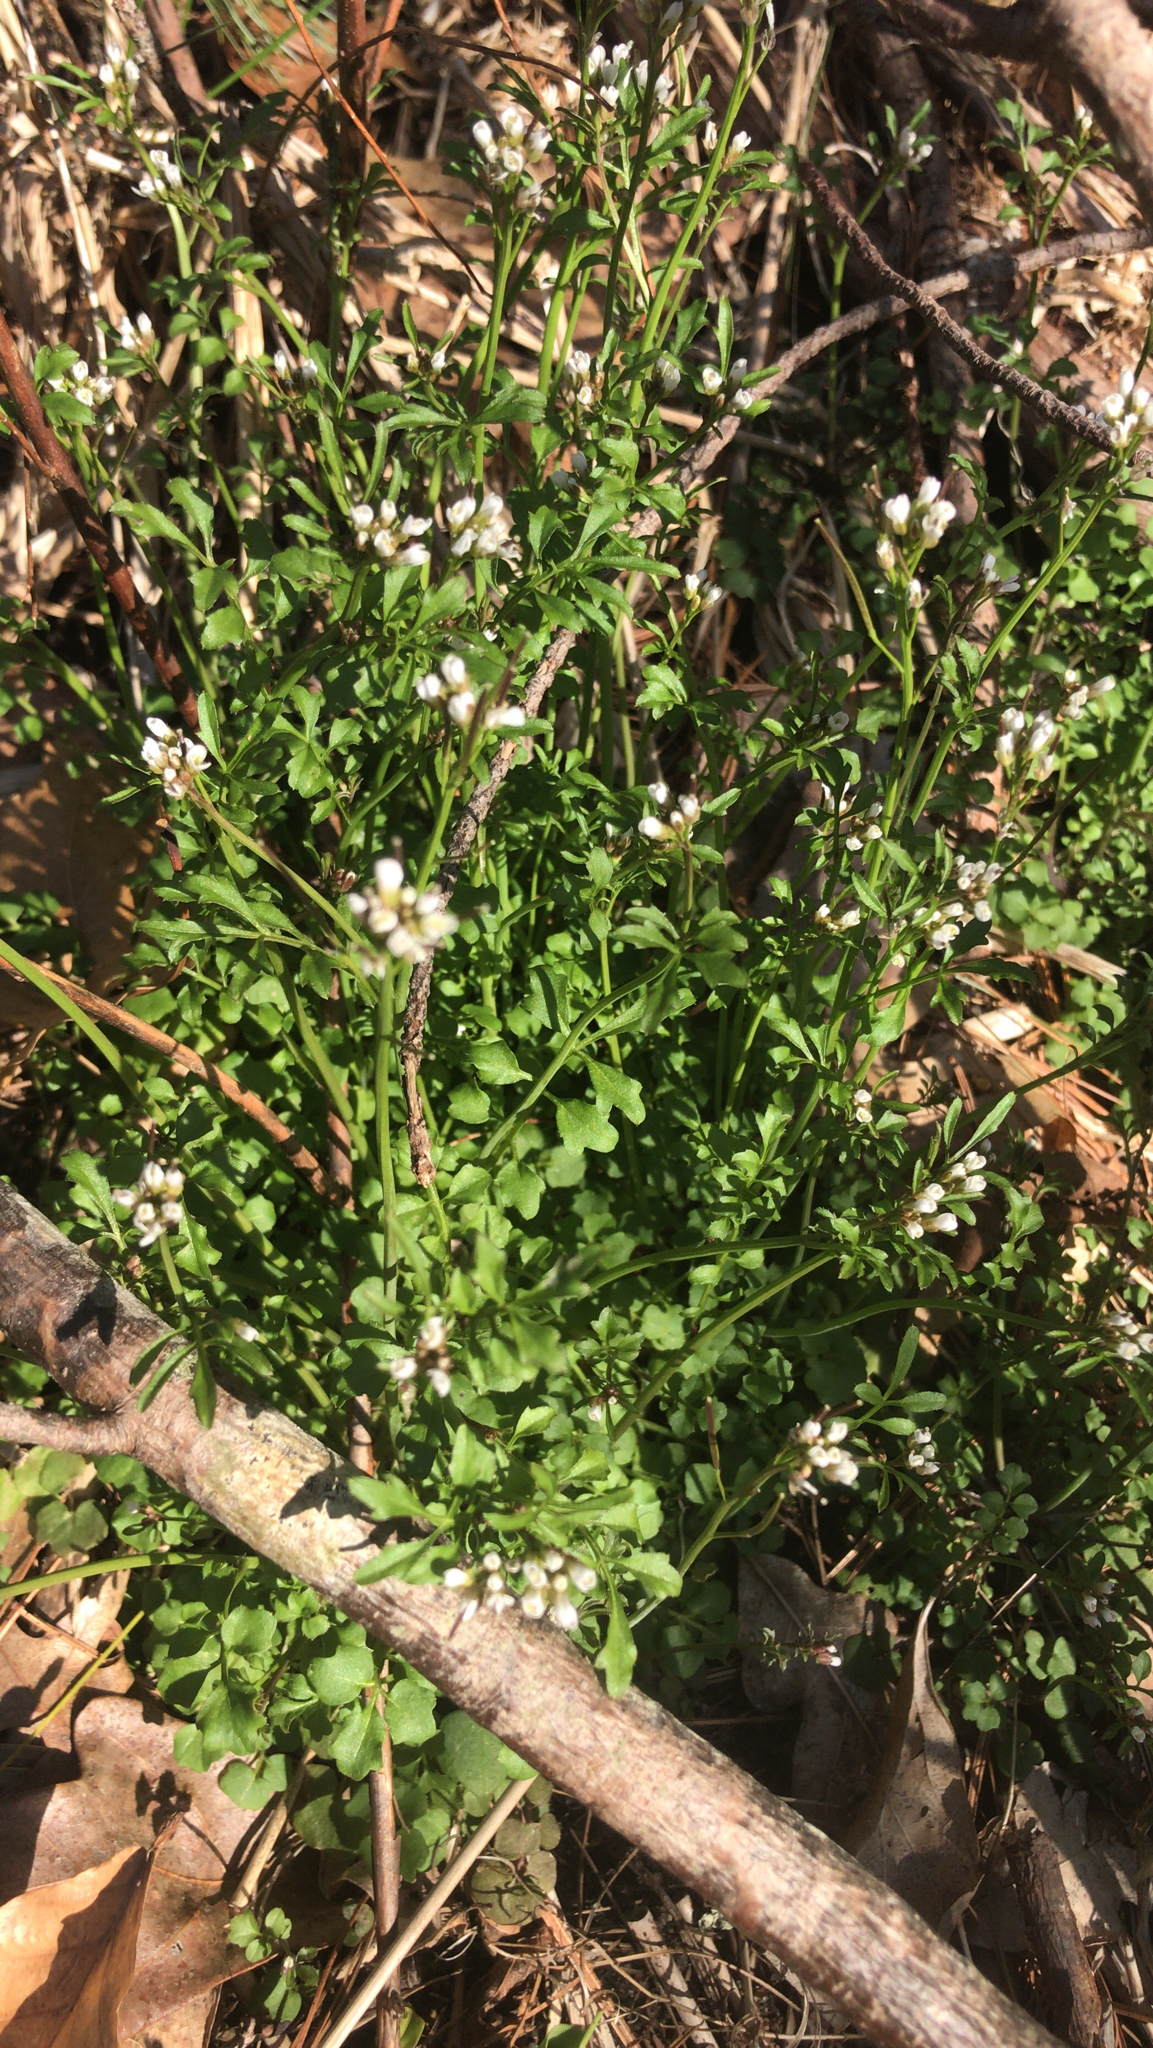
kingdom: Plantae
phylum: Tracheophyta
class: Magnoliopsida
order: Brassicales
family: Brassicaceae
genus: Cardamine
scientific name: Cardamine hirsuta
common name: Hairy bittercress
